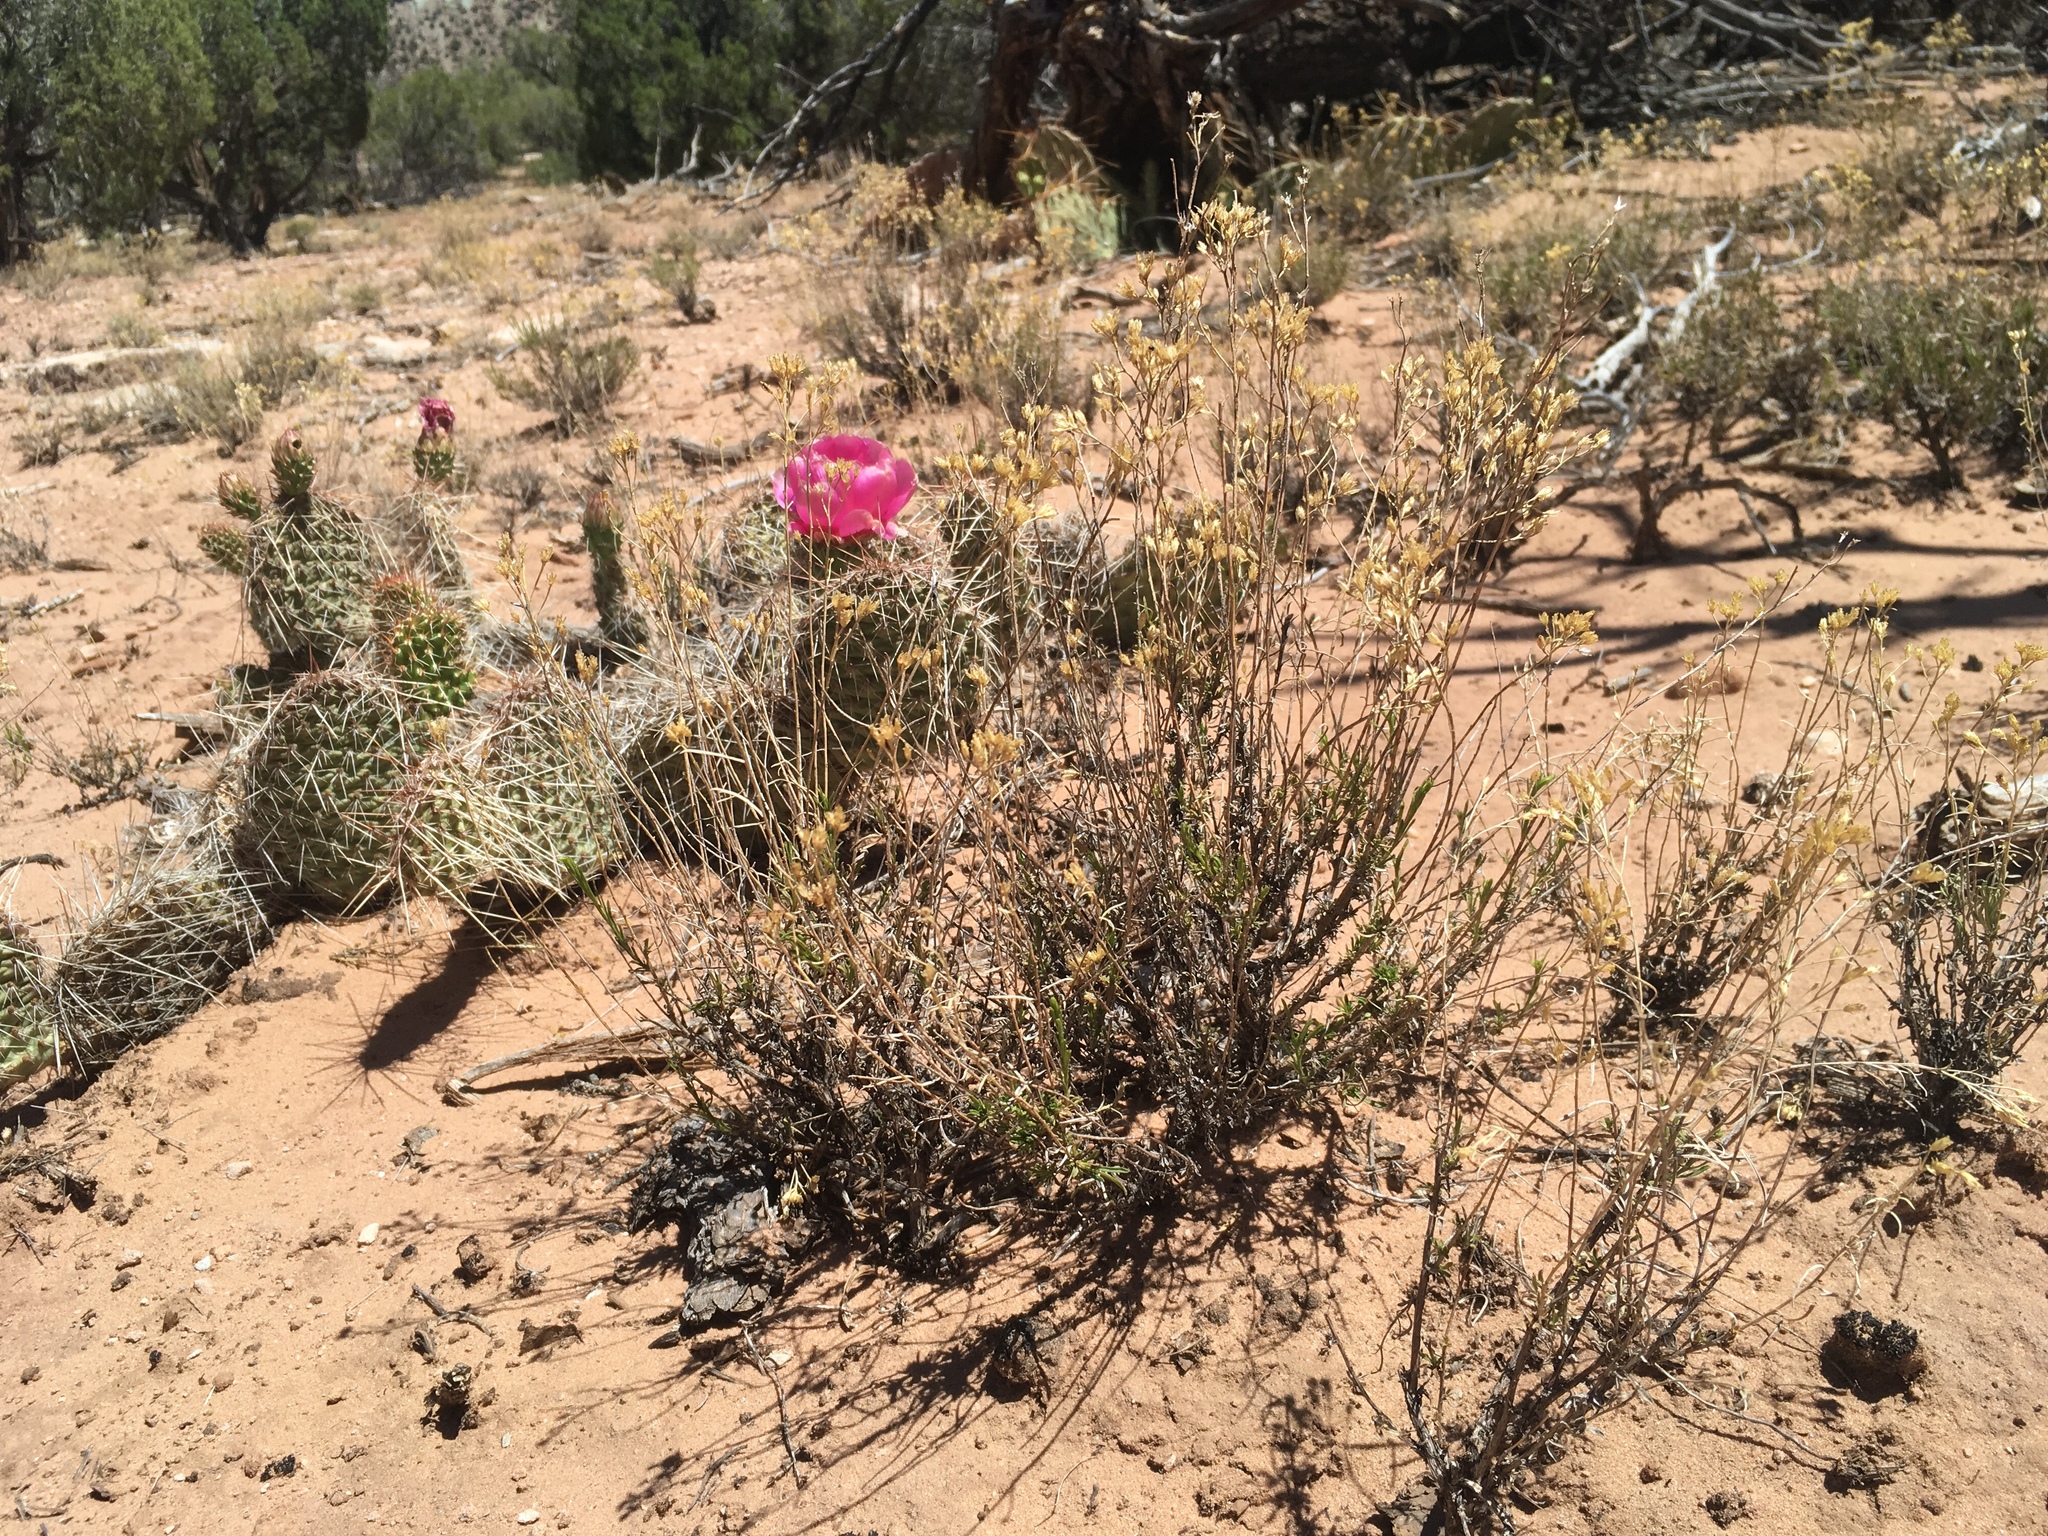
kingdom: Plantae
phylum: Tracheophyta
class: Magnoliopsida
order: Asterales
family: Asteraceae
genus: Gutierrezia
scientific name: Gutierrezia sarothrae
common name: Broom snakeweed
